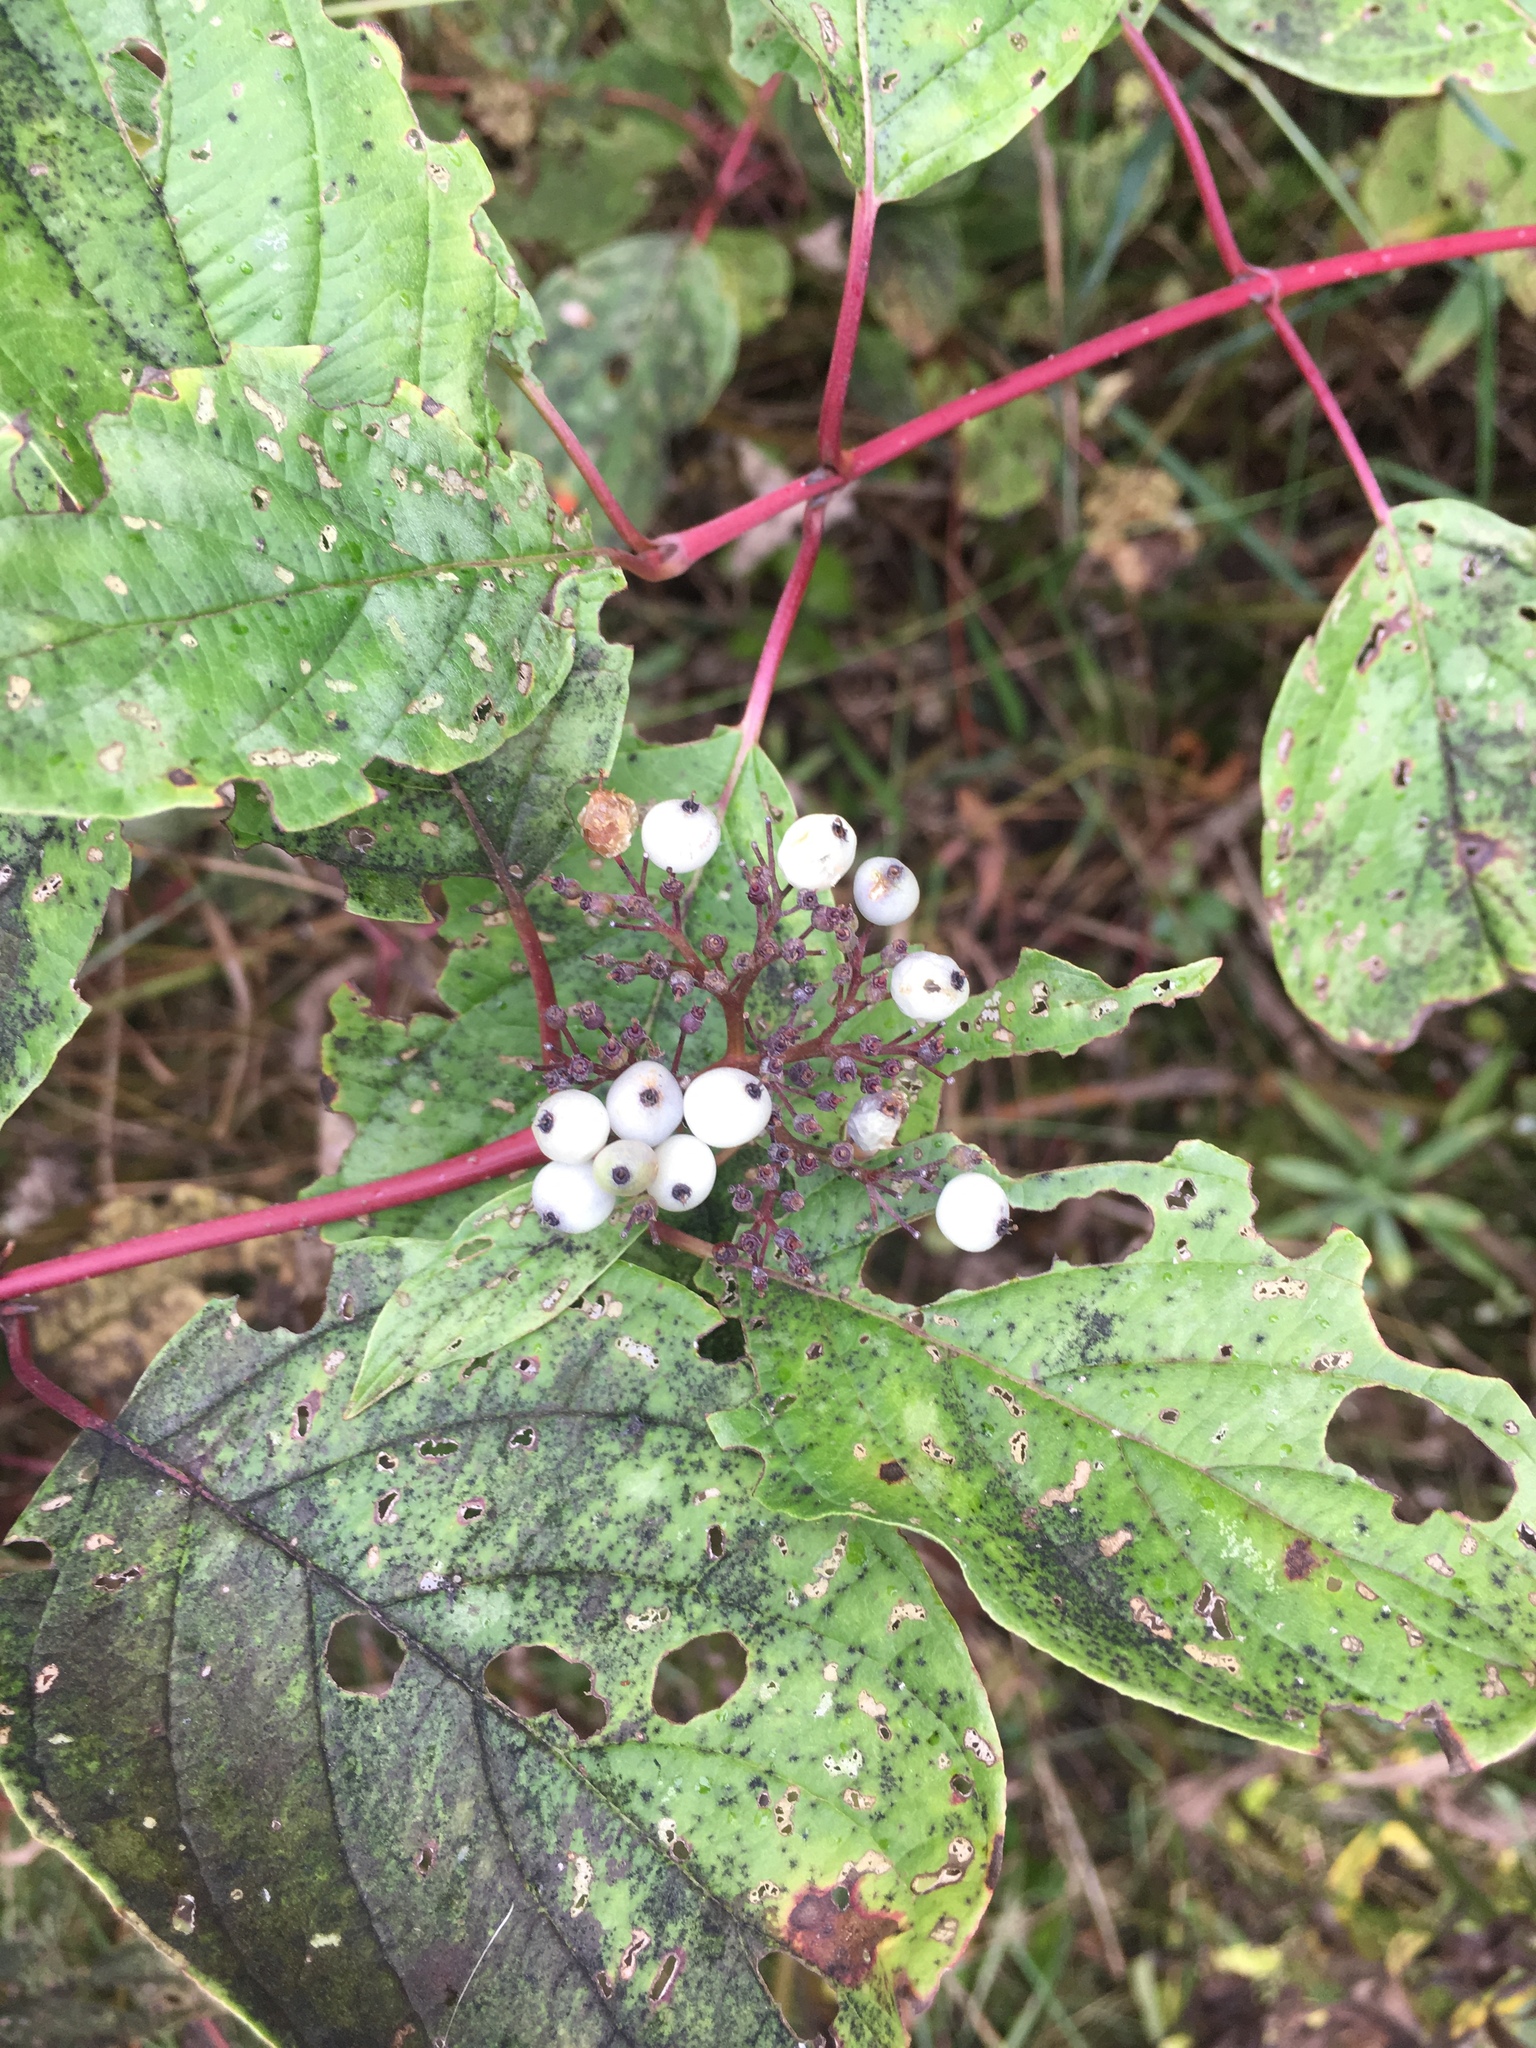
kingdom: Plantae
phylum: Tracheophyta
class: Magnoliopsida
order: Cornales
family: Cornaceae
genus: Cornus
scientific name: Cornus sericea
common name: Red-osier dogwood
